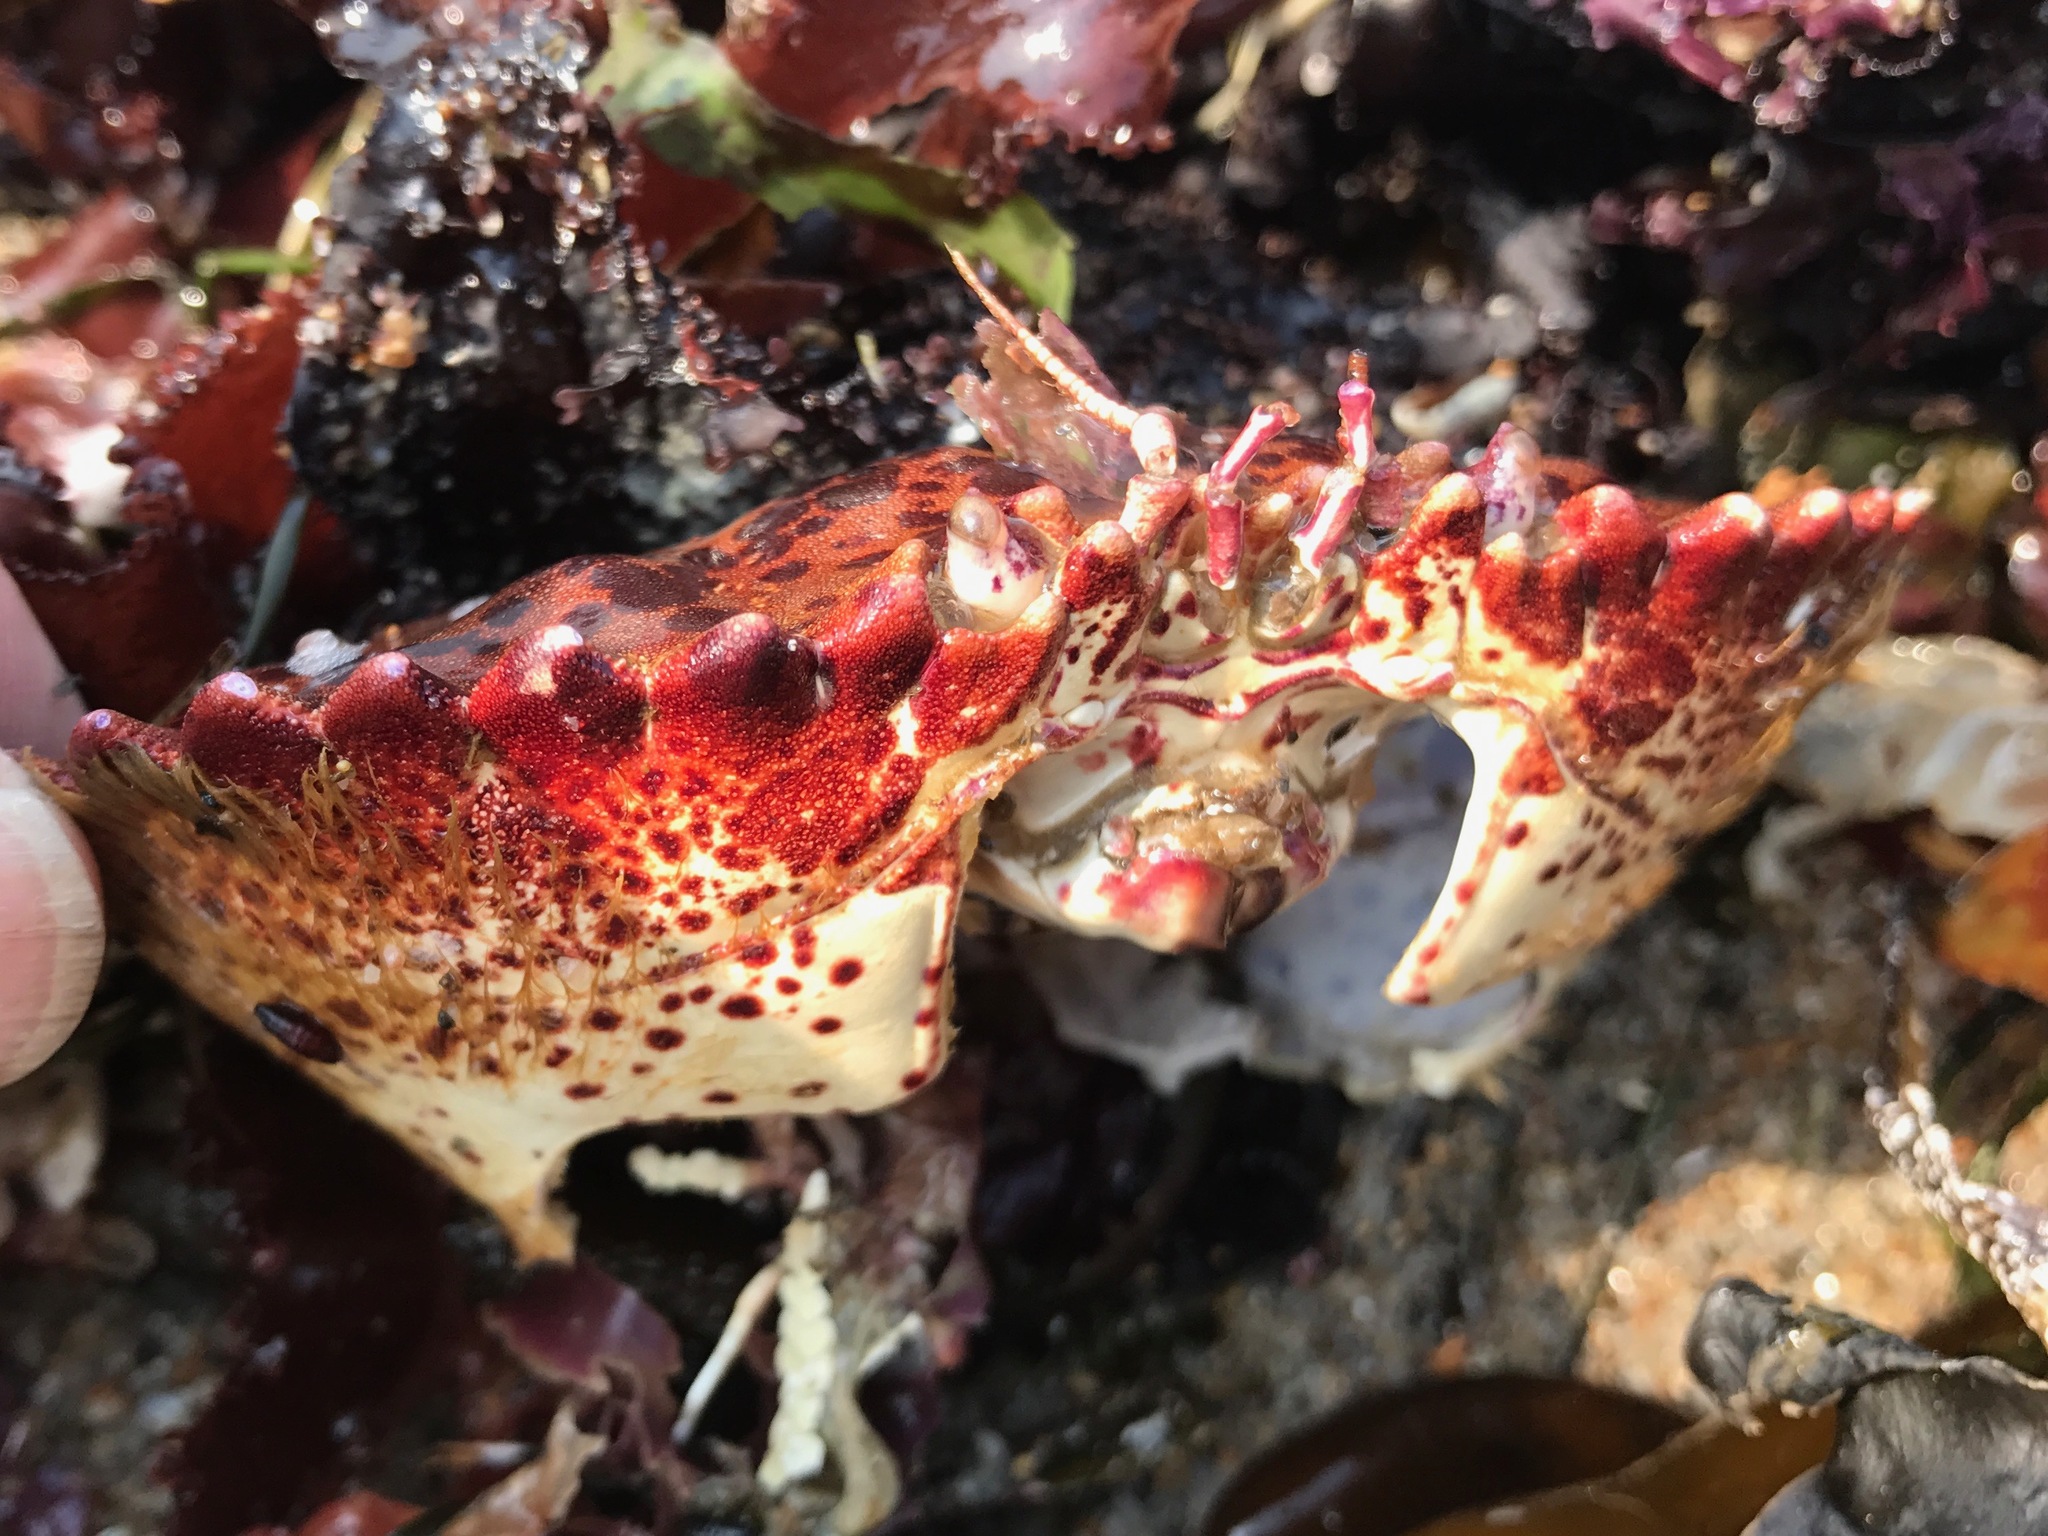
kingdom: Animalia
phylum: Arthropoda
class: Malacostraca
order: Decapoda
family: Cancridae
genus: Romaleon
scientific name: Romaleon antennarium
